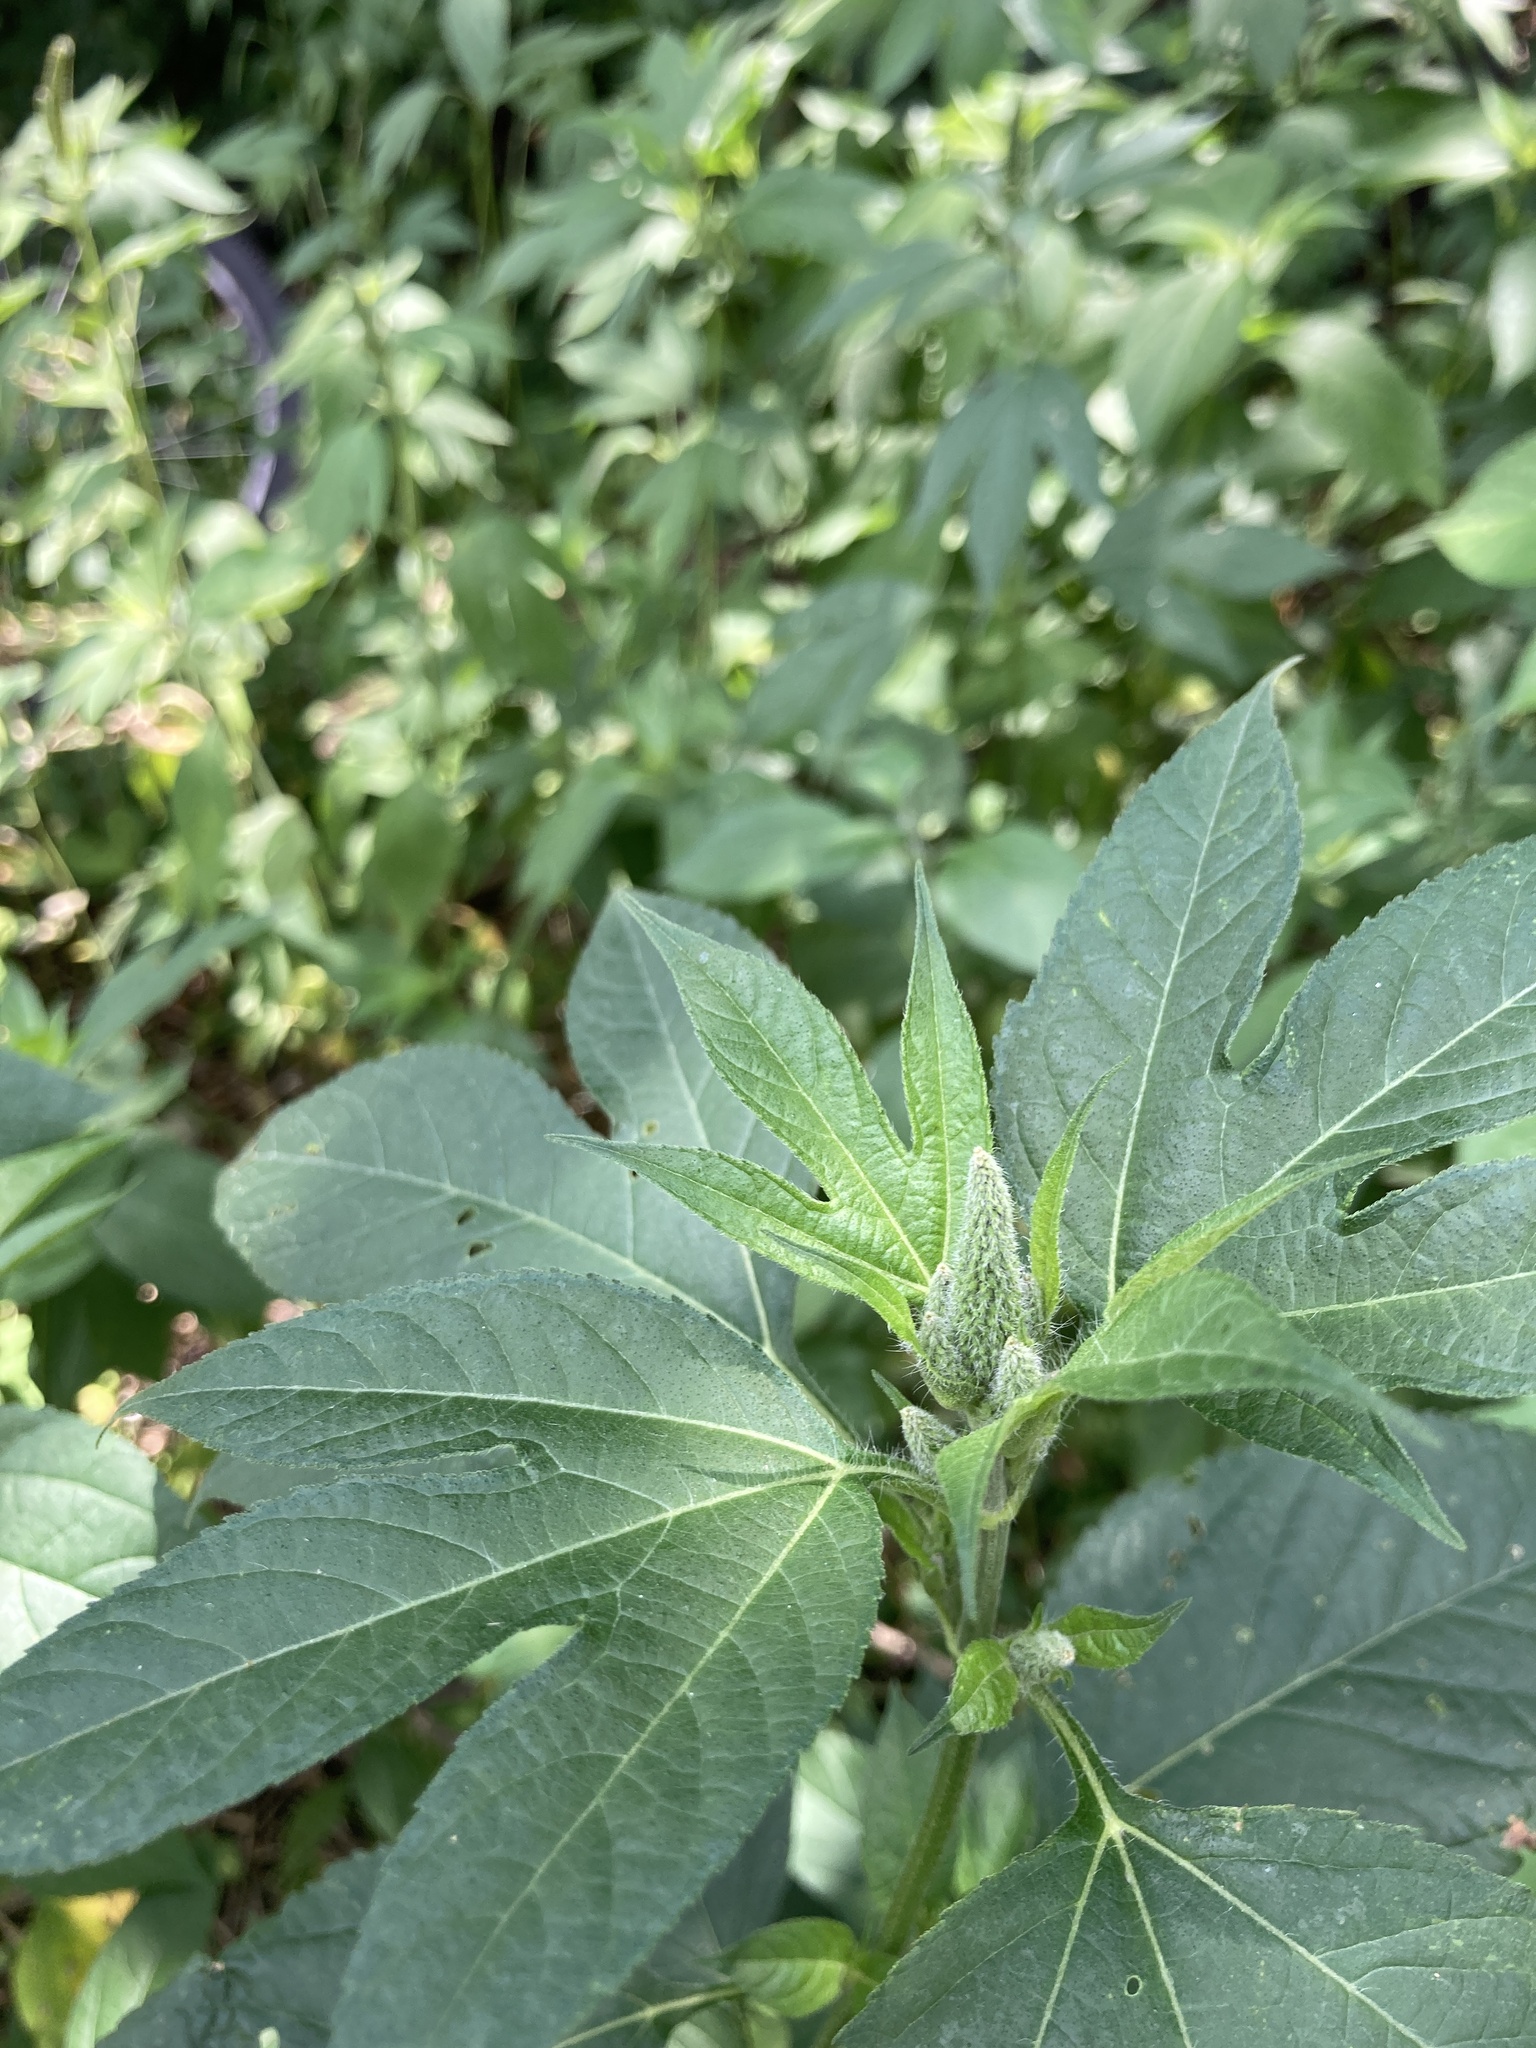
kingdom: Plantae
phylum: Tracheophyta
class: Magnoliopsida
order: Asterales
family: Asteraceae
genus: Ambrosia
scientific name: Ambrosia trifida
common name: Giant ragweed
